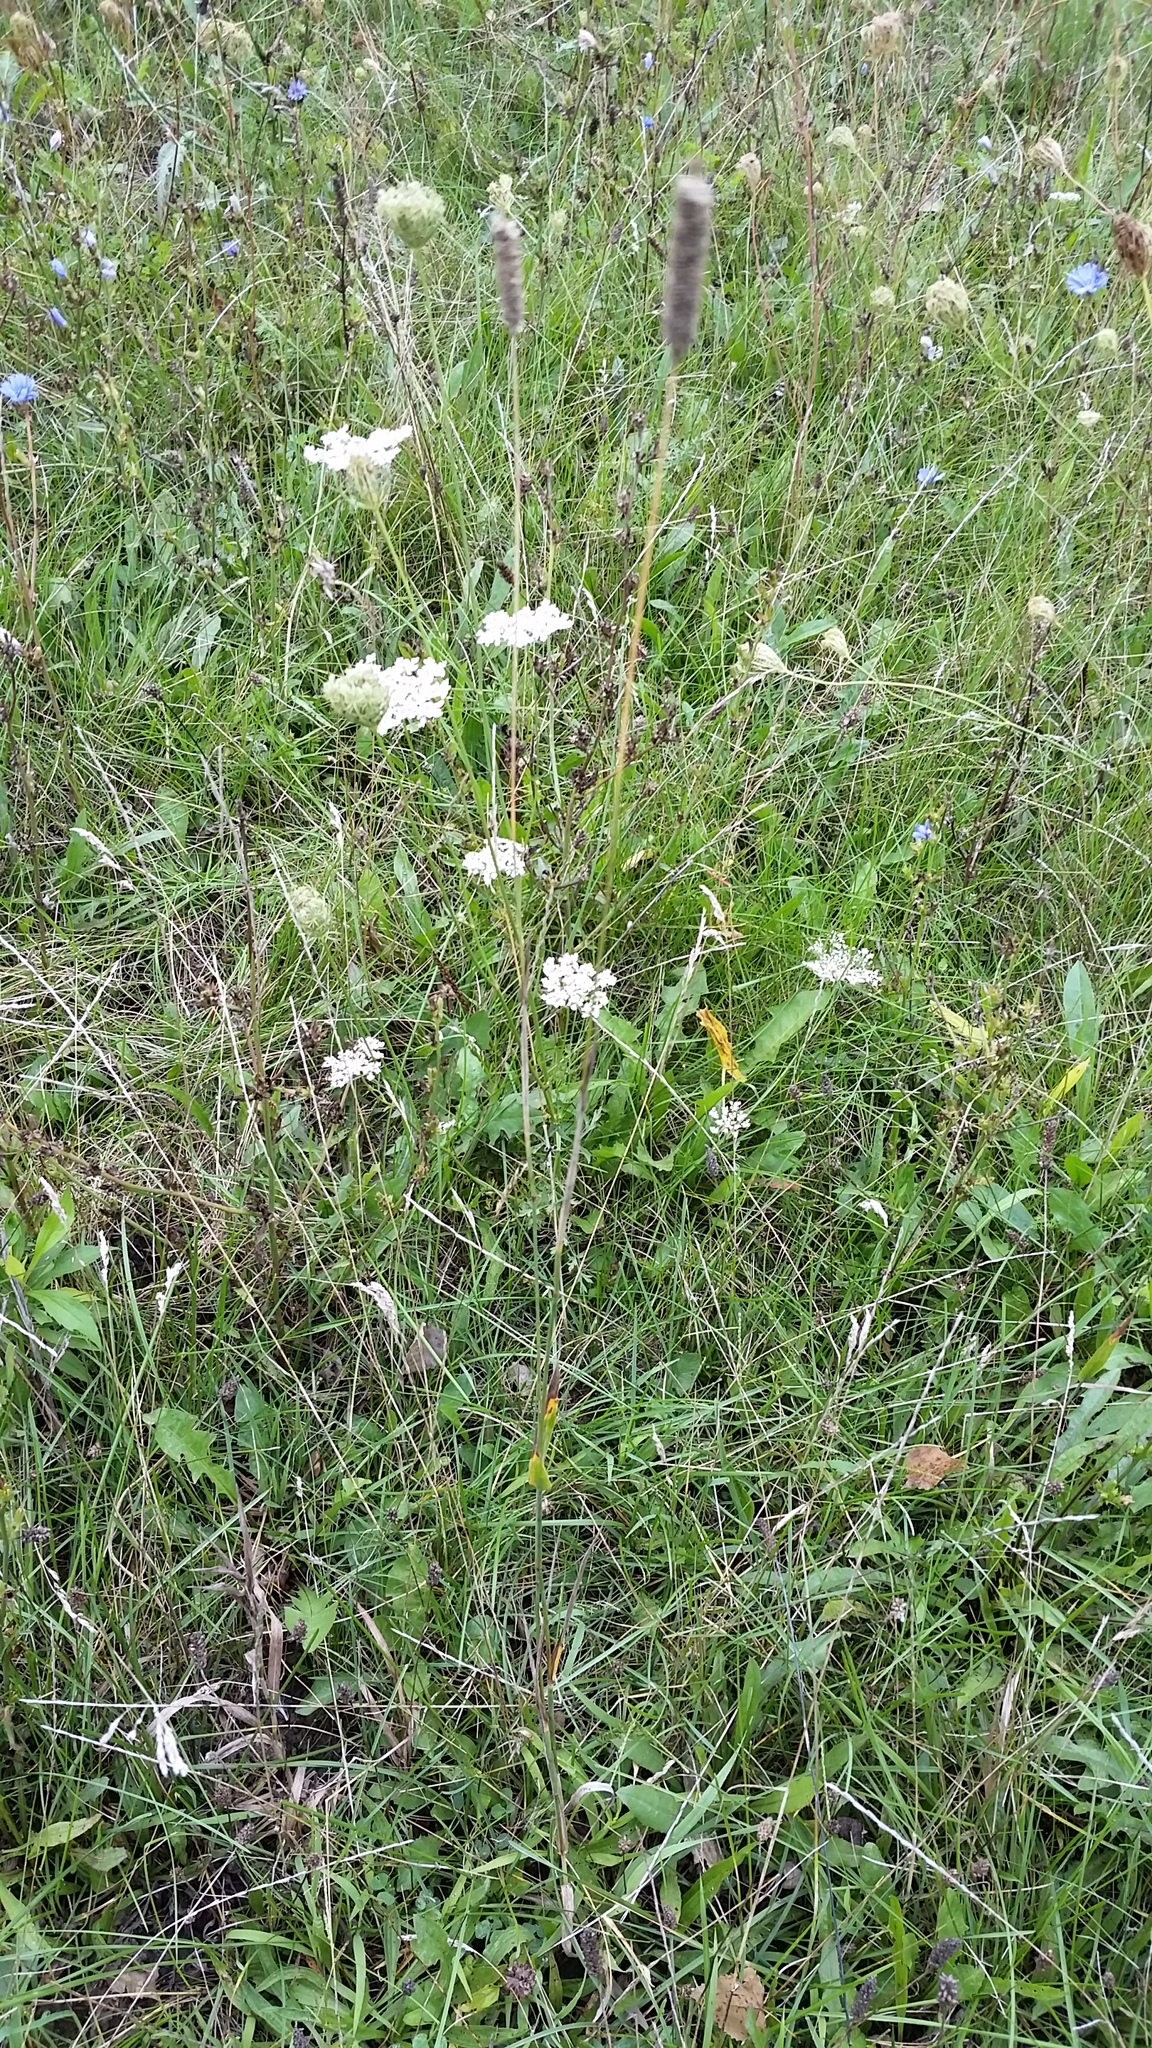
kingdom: Plantae
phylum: Tracheophyta
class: Liliopsida
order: Poales
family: Poaceae
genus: Phleum
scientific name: Phleum pratense
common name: Timothy grass
